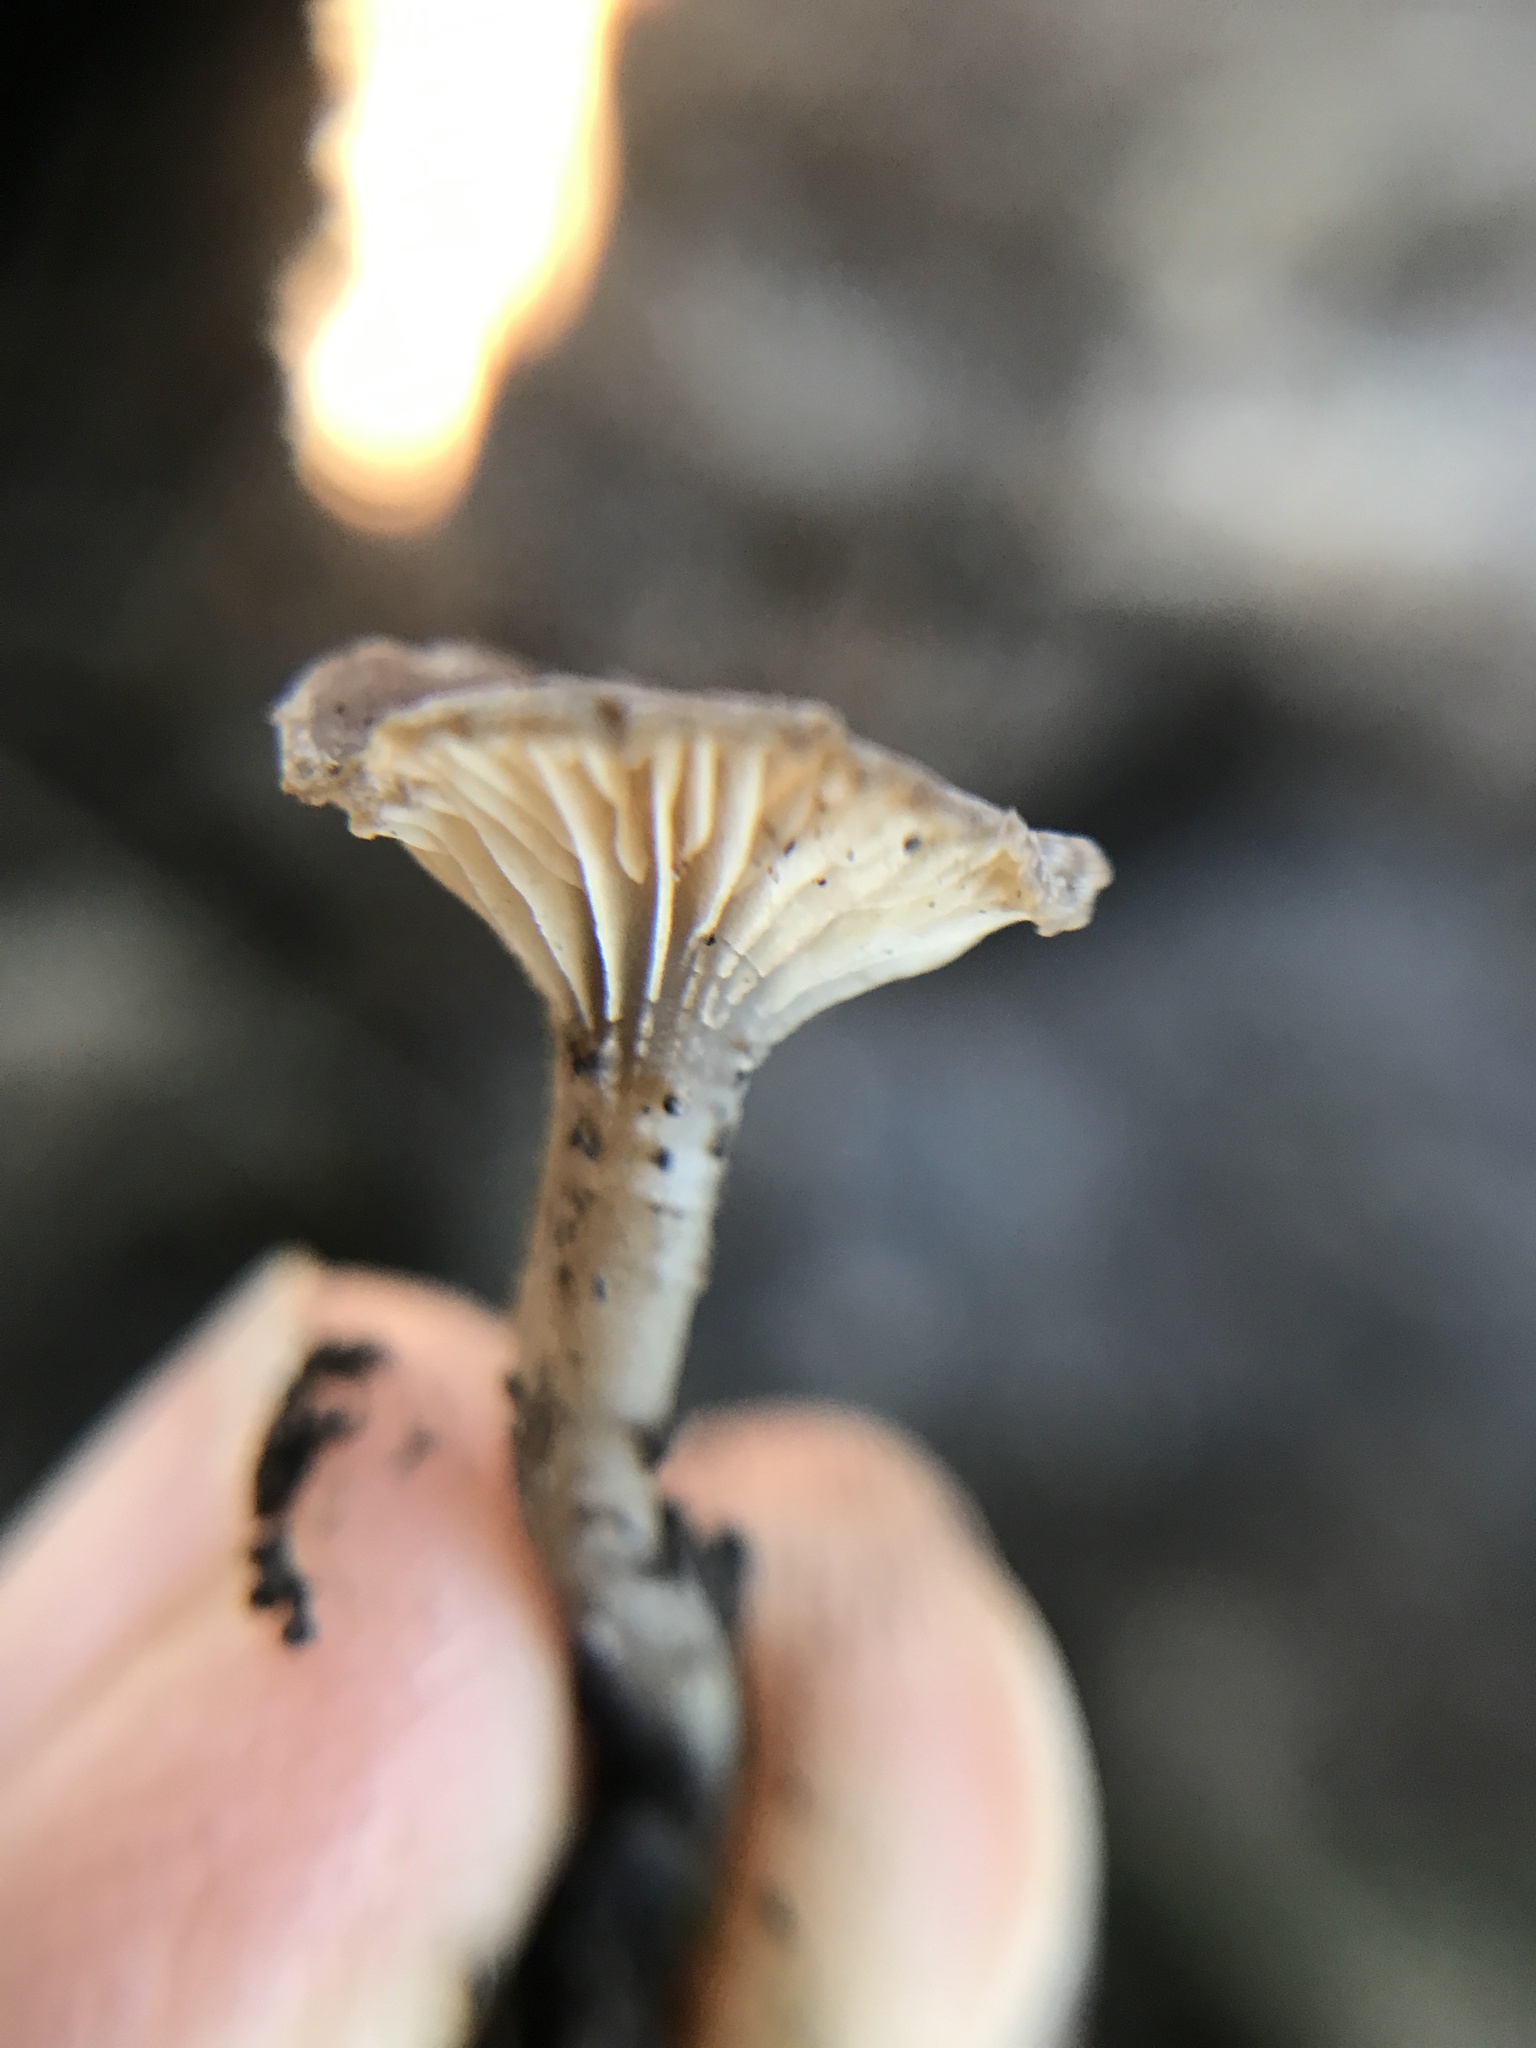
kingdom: Fungi
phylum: Basidiomycota
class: Agaricomycetes
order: Hymenochaetales
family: Rickenellaceae
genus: Contumyces
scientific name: Contumyces rosellus
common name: Rosy navel
